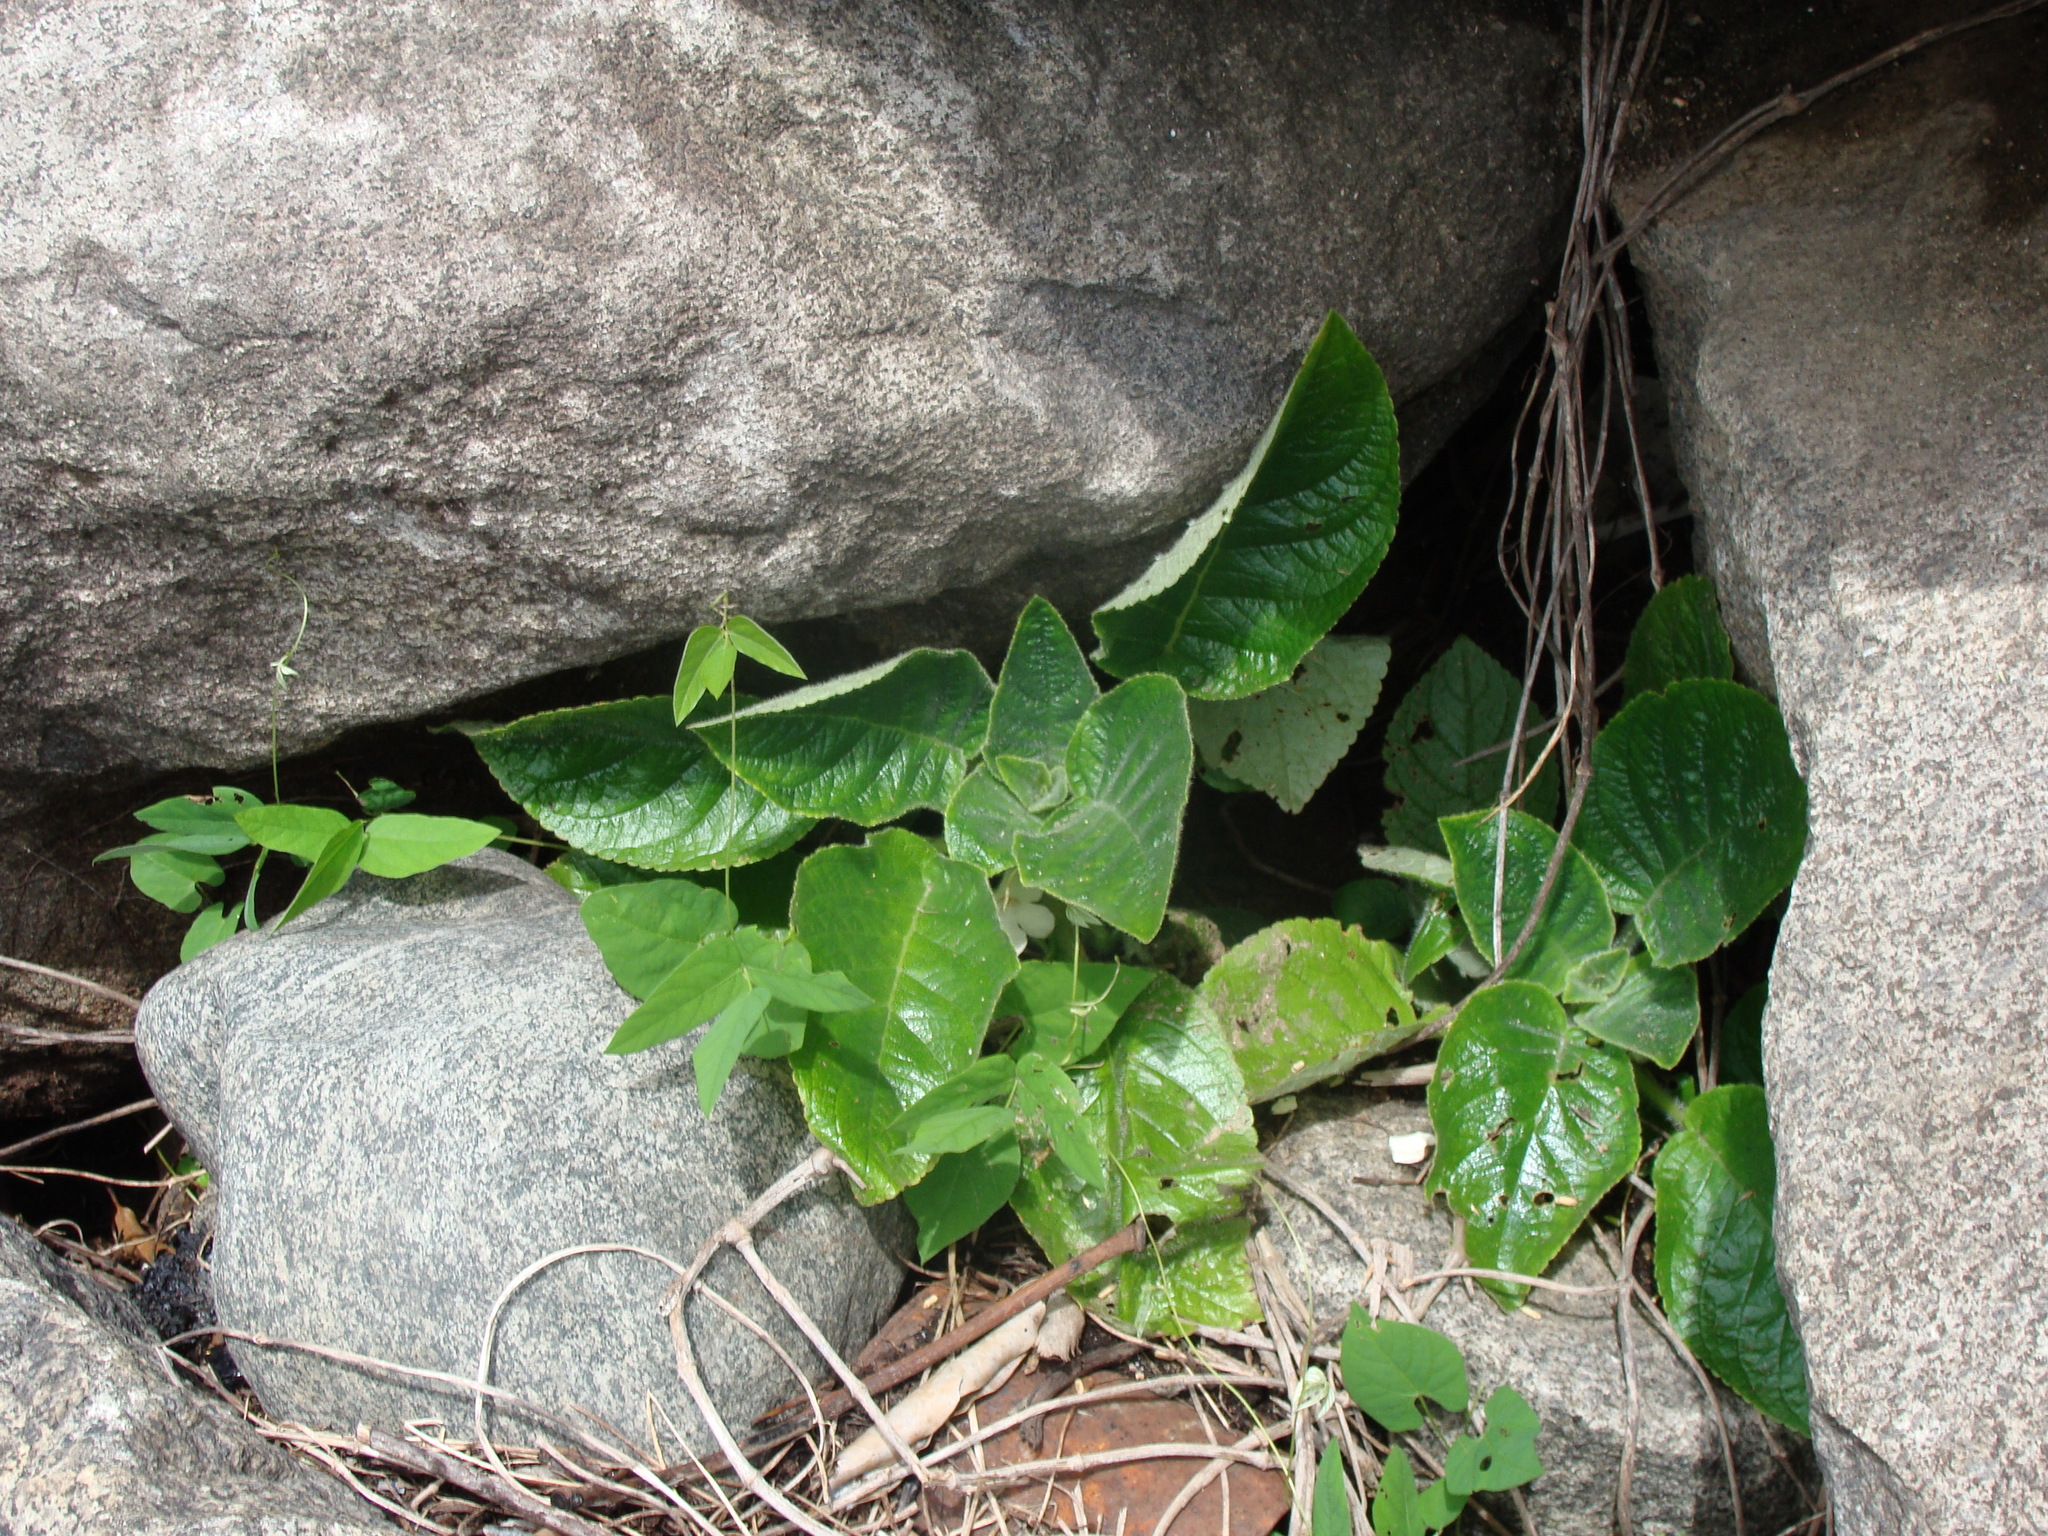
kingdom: Plantae
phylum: Tracheophyta
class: Magnoliopsida
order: Lamiales
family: Gesneriaceae
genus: Chrysothemis
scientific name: Chrysothemis panamensis
